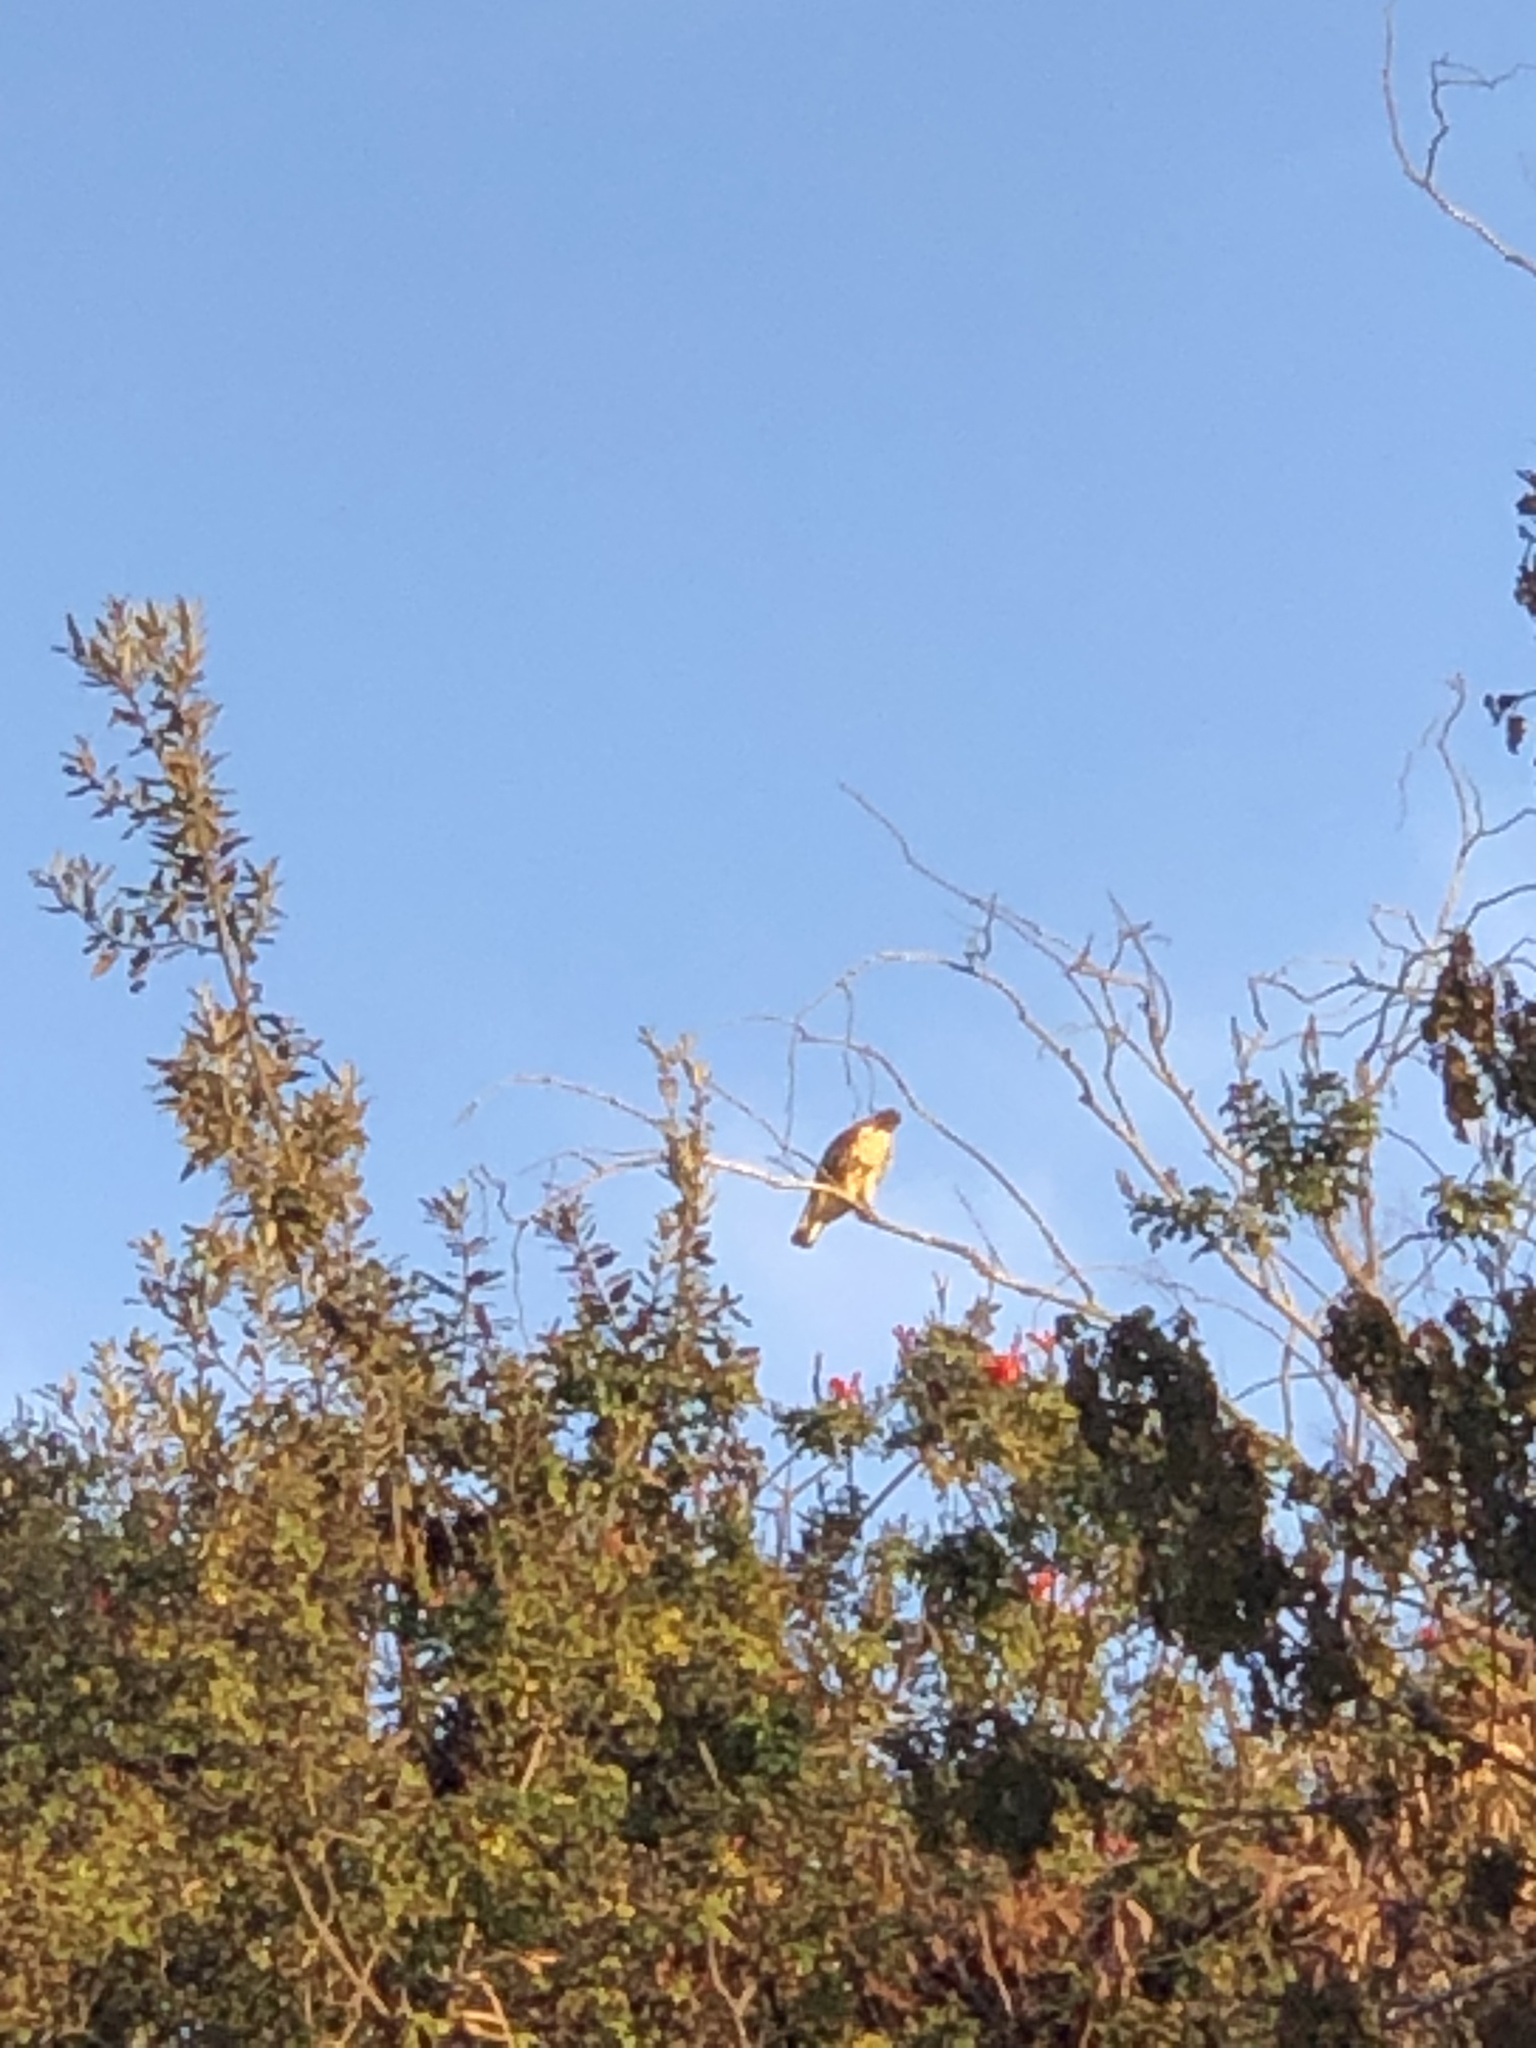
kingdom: Animalia
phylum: Chordata
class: Aves
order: Accipitriformes
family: Accipitridae
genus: Buteo
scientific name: Buteo jamaicensis
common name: Red-tailed hawk
